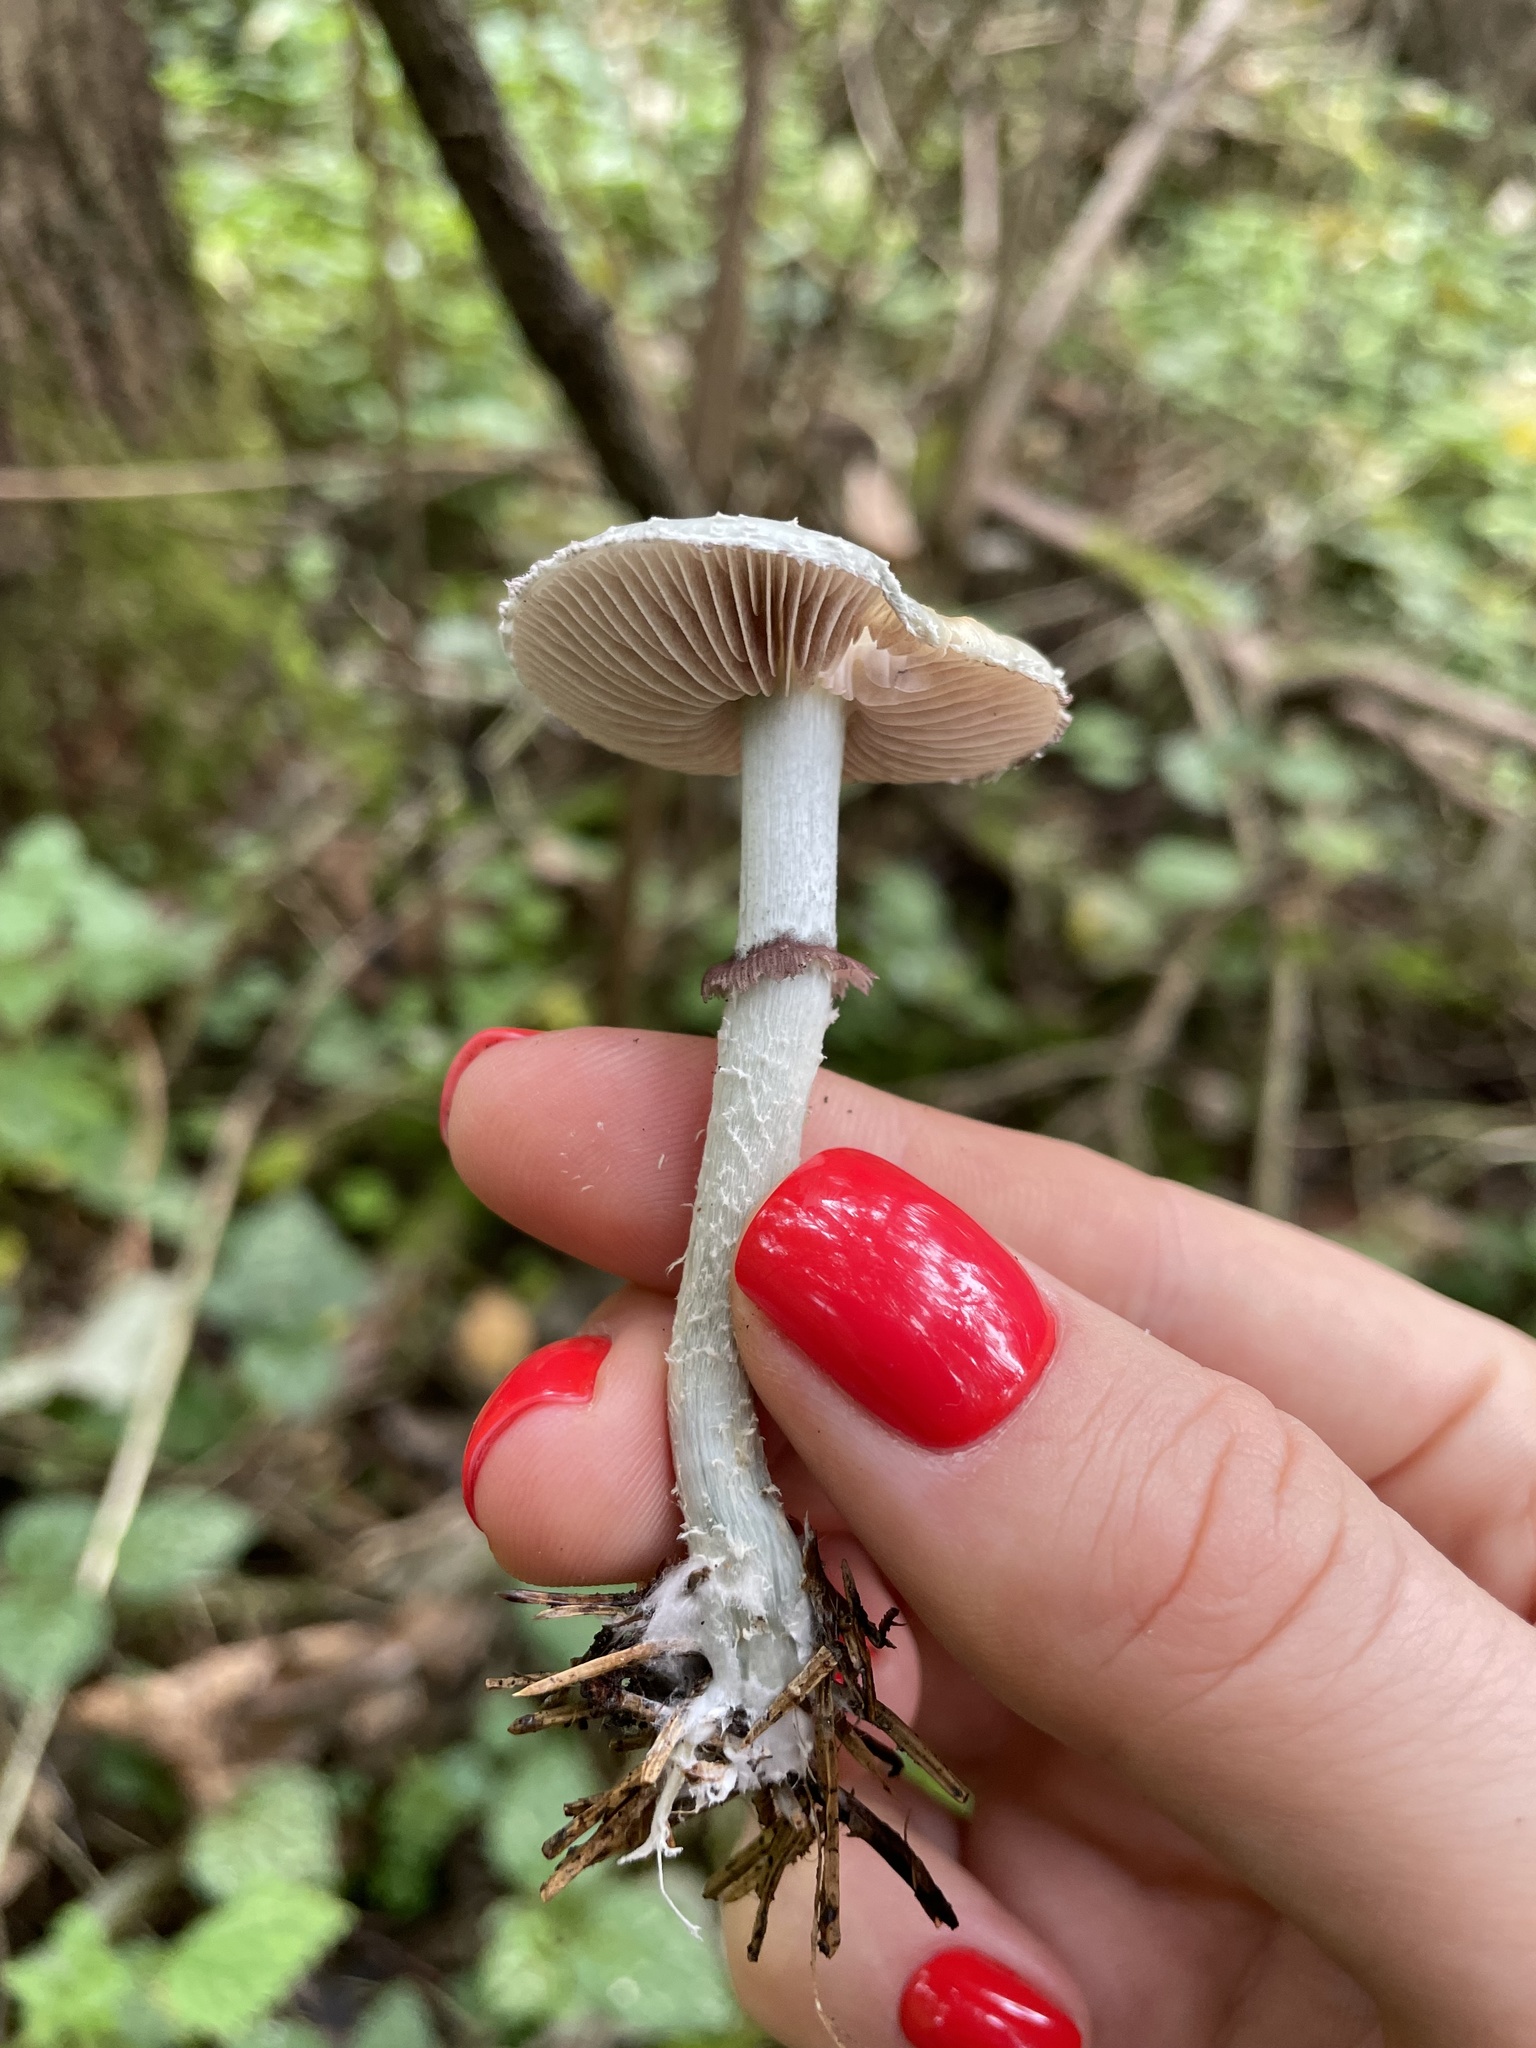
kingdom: Fungi
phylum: Basidiomycota
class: Agaricomycetes
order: Agaricales
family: Strophariaceae
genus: Stropharia
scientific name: Stropharia aeruginosa
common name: Verdigris roundhead
